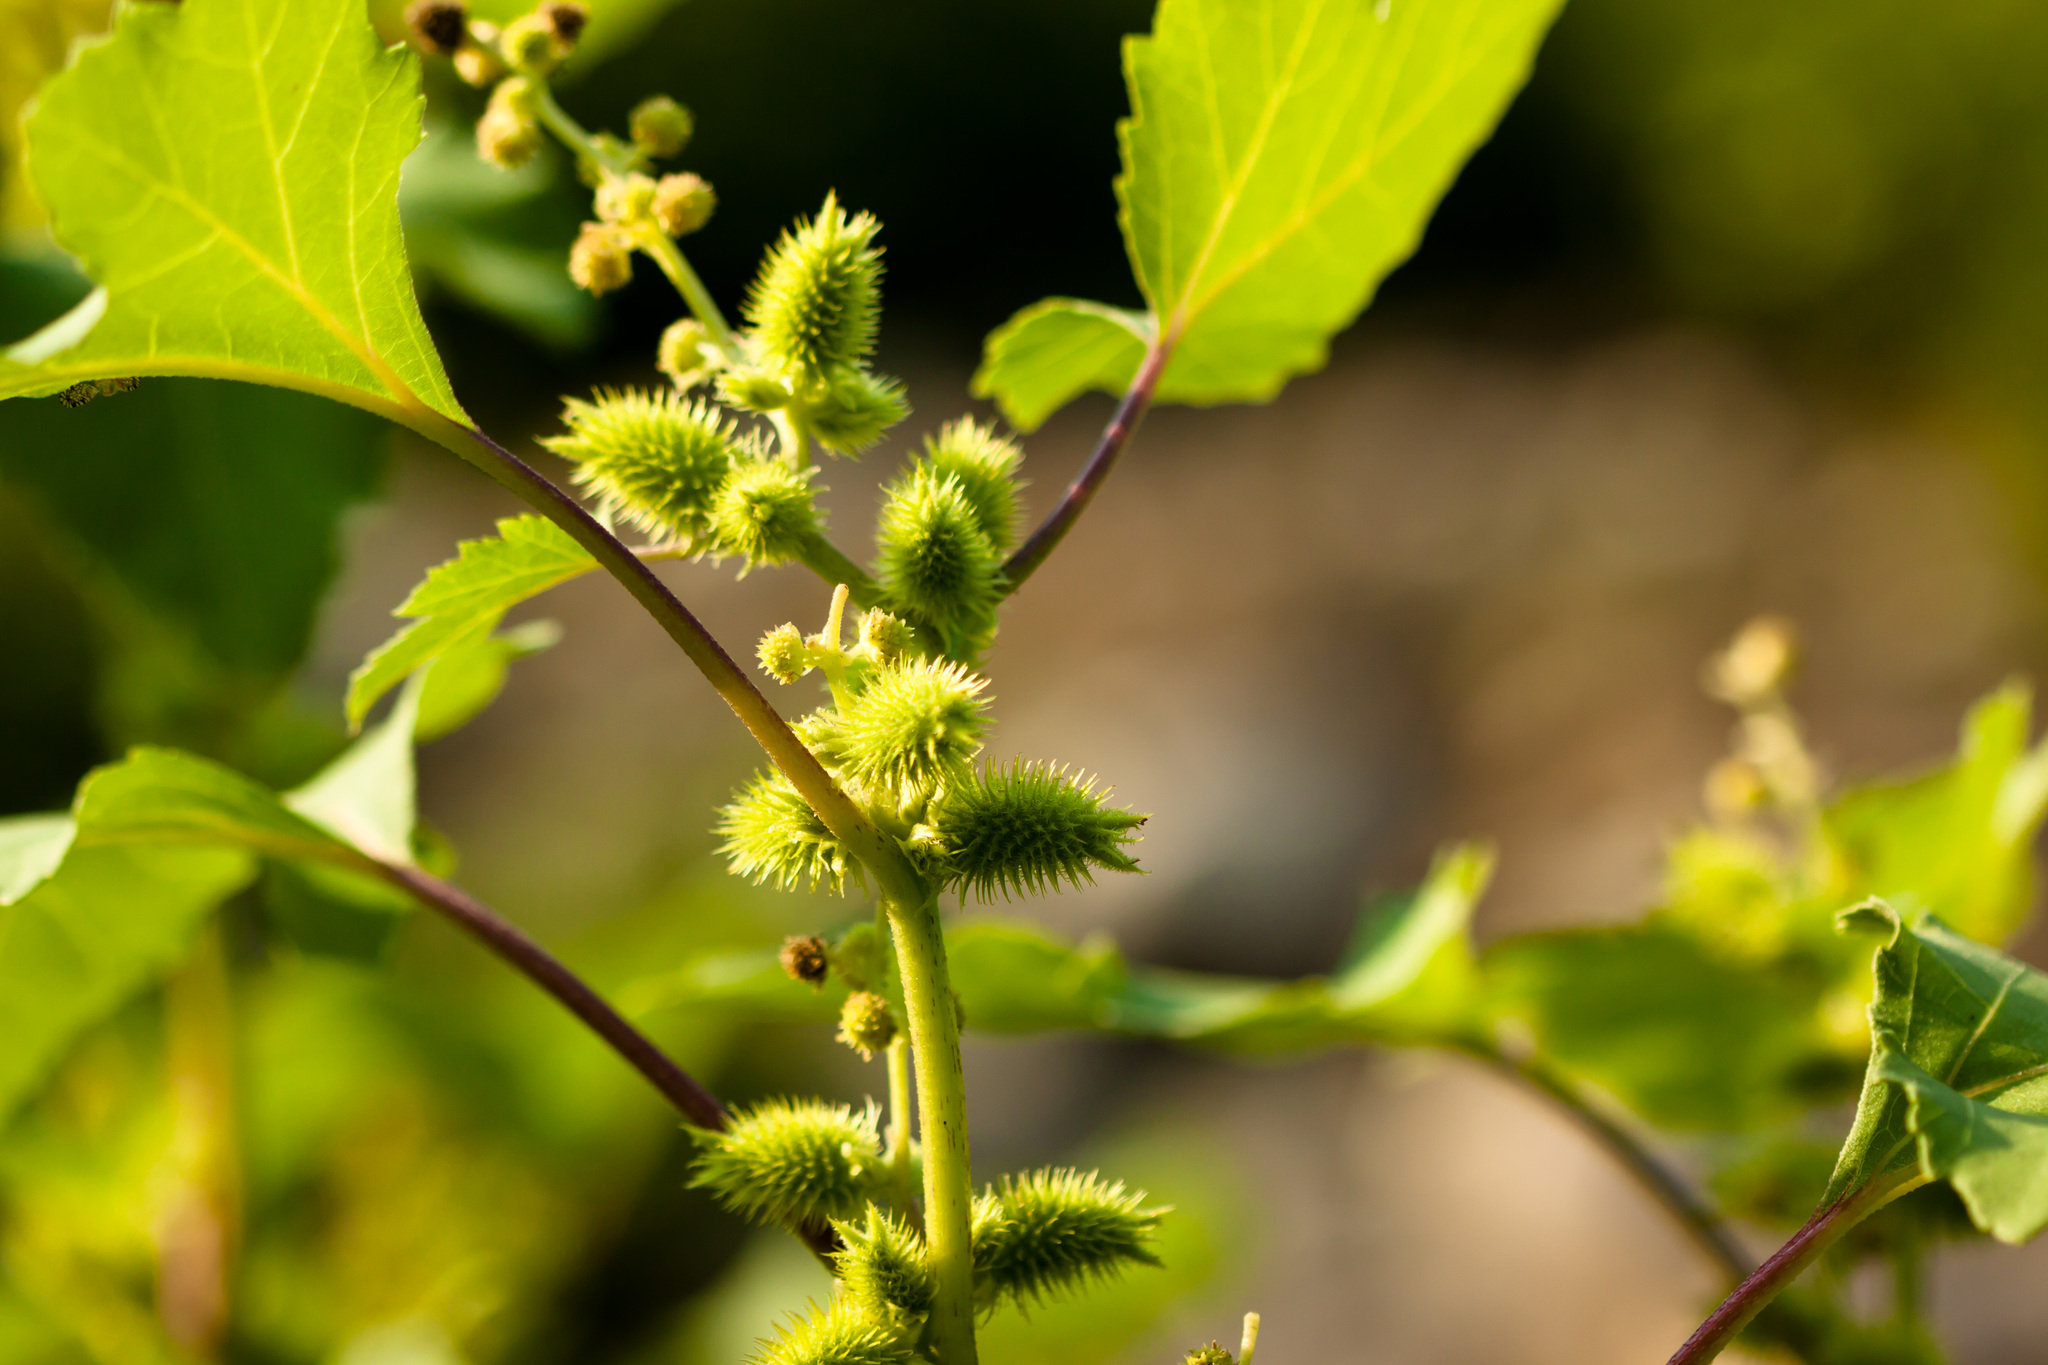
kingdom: Plantae
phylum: Tracheophyta
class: Magnoliopsida
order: Asterales
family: Asteraceae
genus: Xanthium
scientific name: Xanthium strumarium
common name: Rough cocklebur
